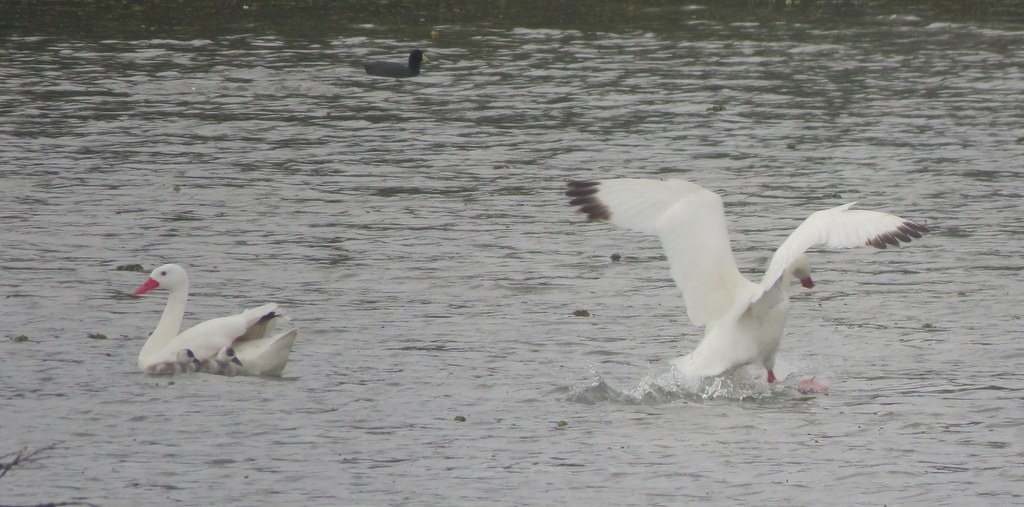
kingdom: Animalia
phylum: Chordata
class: Aves
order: Anseriformes
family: Anatidae
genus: Coscoroba
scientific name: Coscoroba coscoroba
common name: Coscoroba swan
